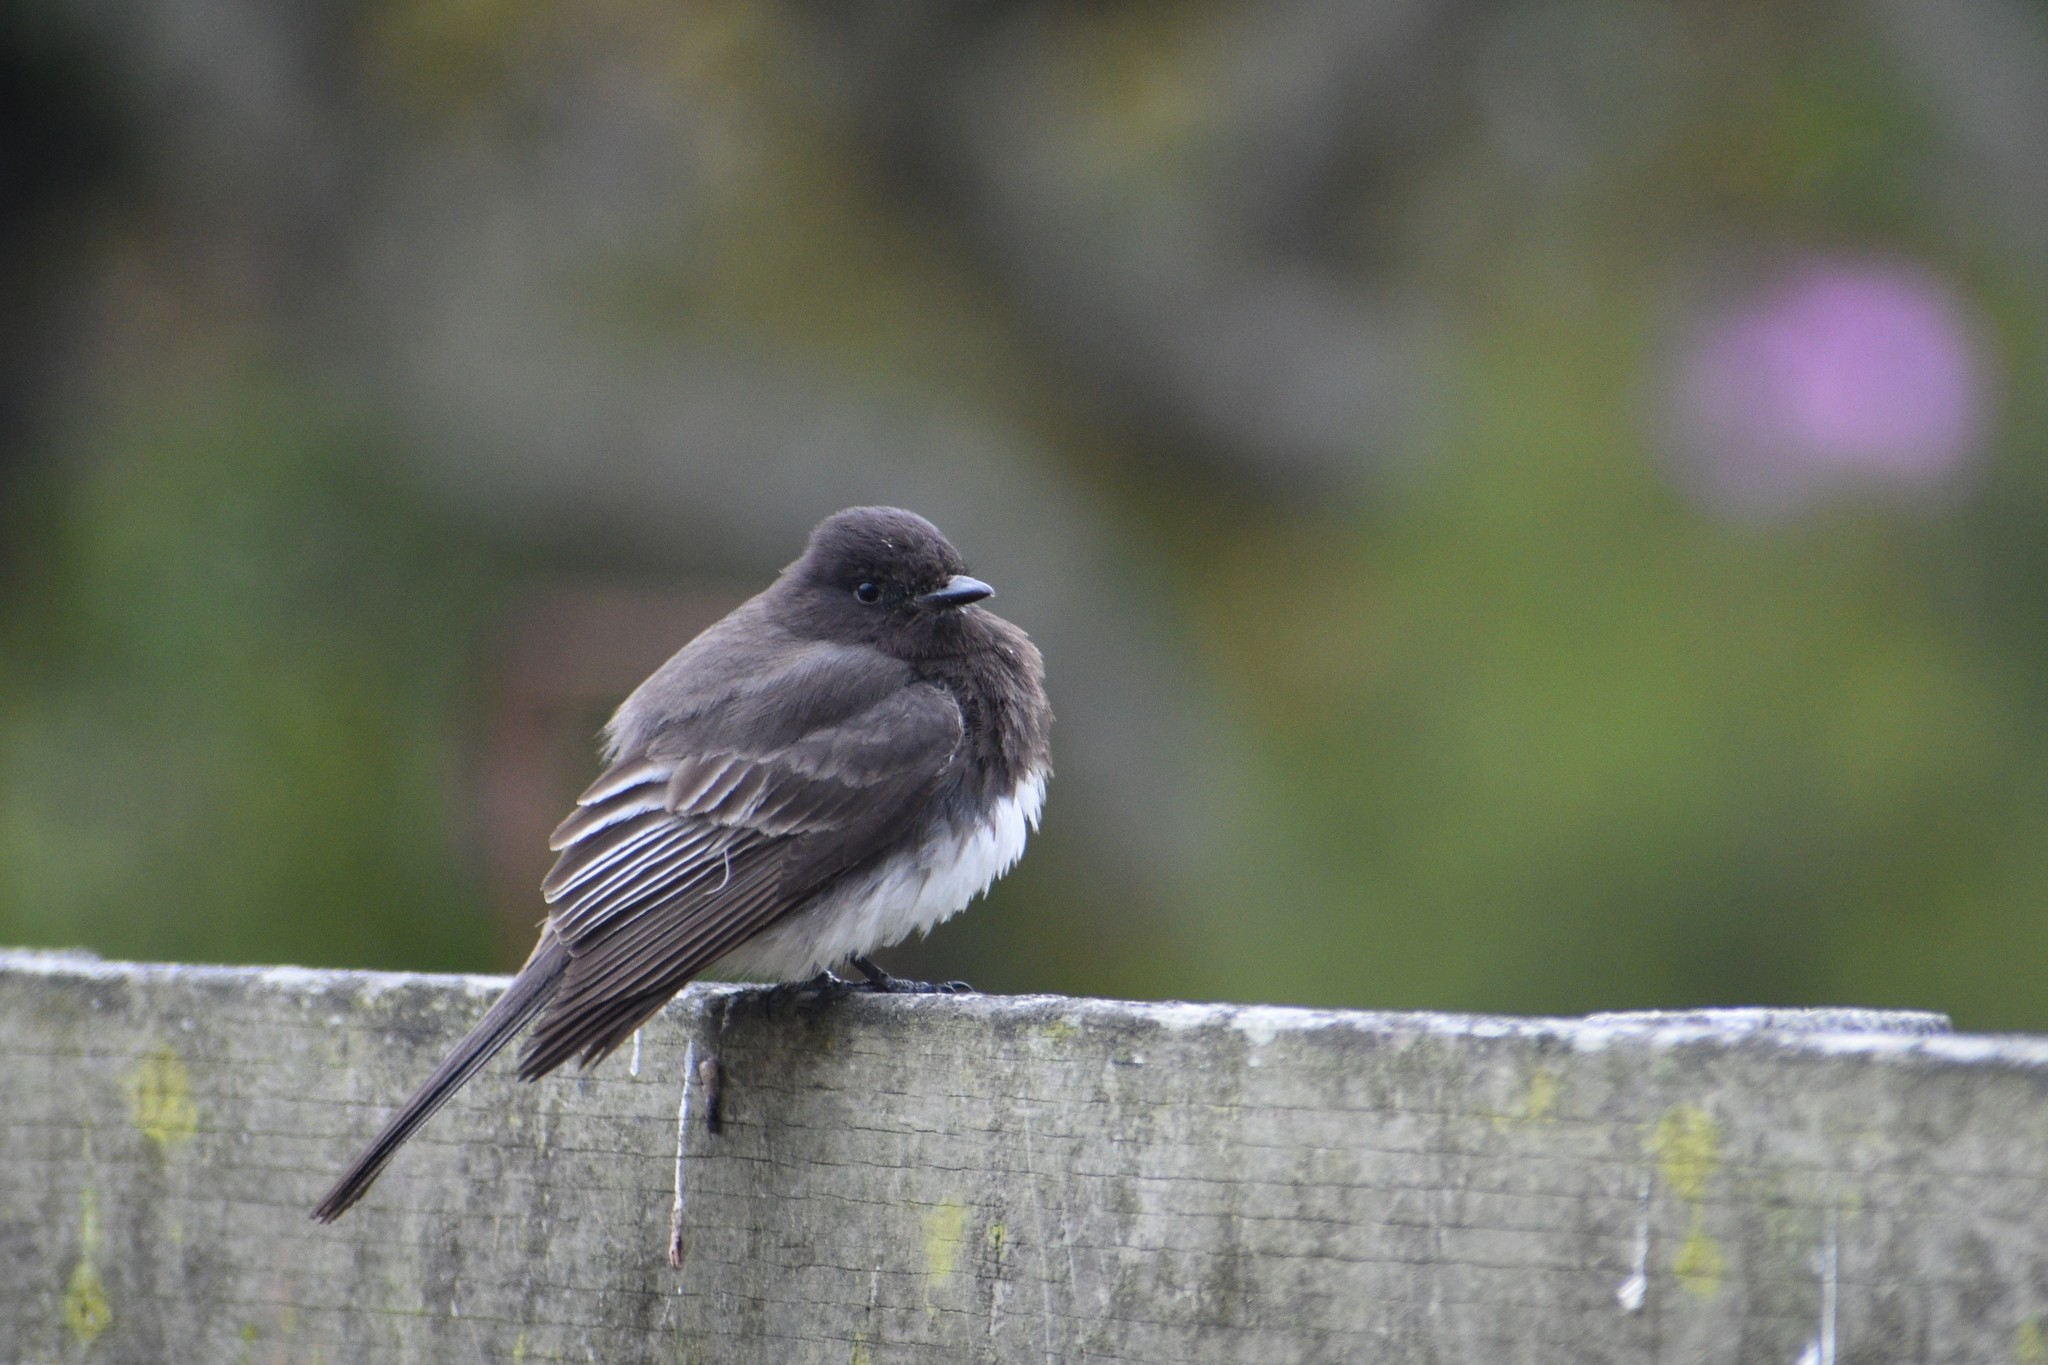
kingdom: Animalia
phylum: Chordata
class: Aves
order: Passeriformes
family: Tyrannidae
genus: Sayornis
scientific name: Sayornis nigricans
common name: Black phoebe
